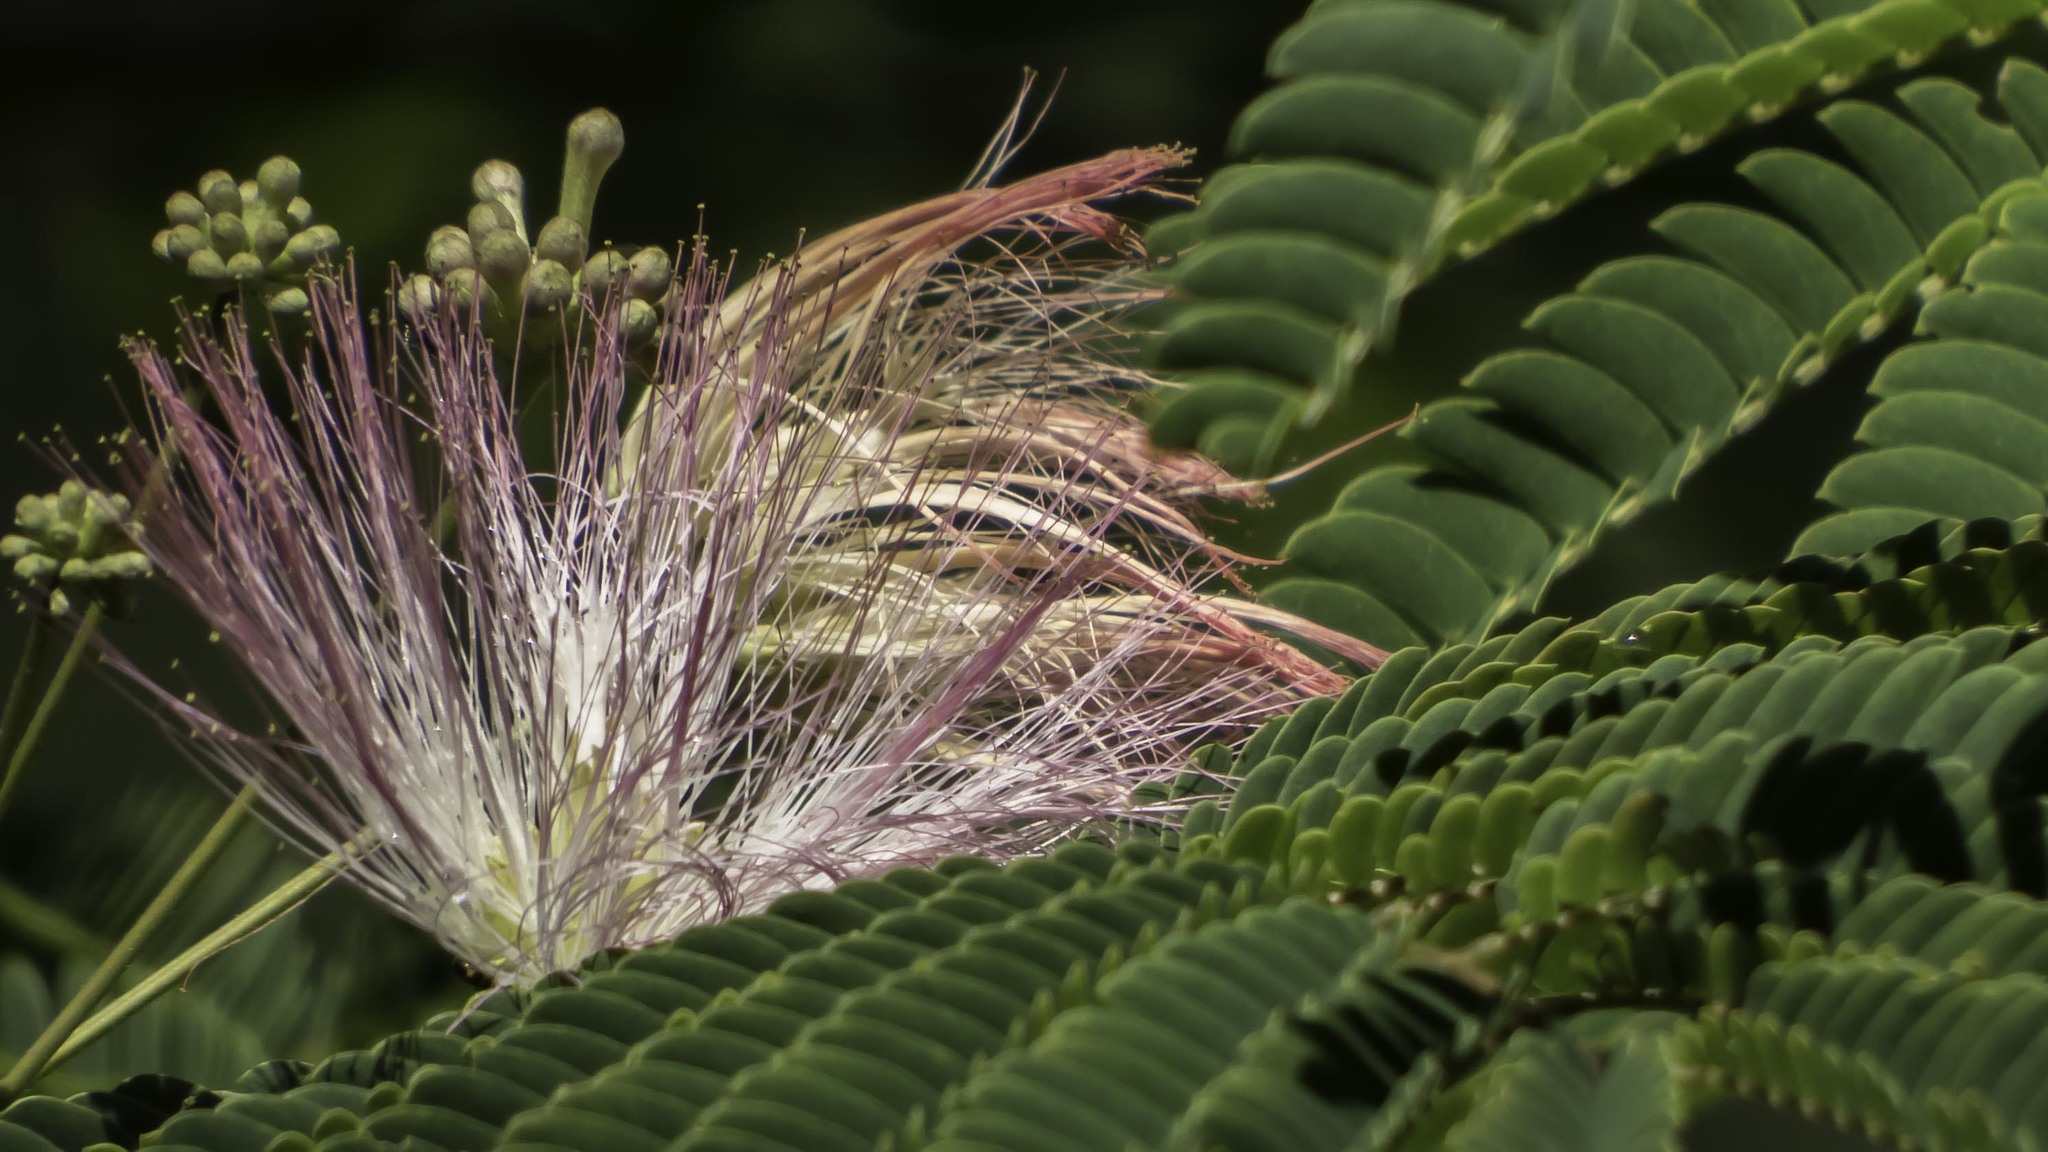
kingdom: Plantae
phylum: Tracheophyta
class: Magnoliopsida
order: Fabales
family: Fabaceae
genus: Albizia
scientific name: Albizia julibrissin
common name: Silktree
